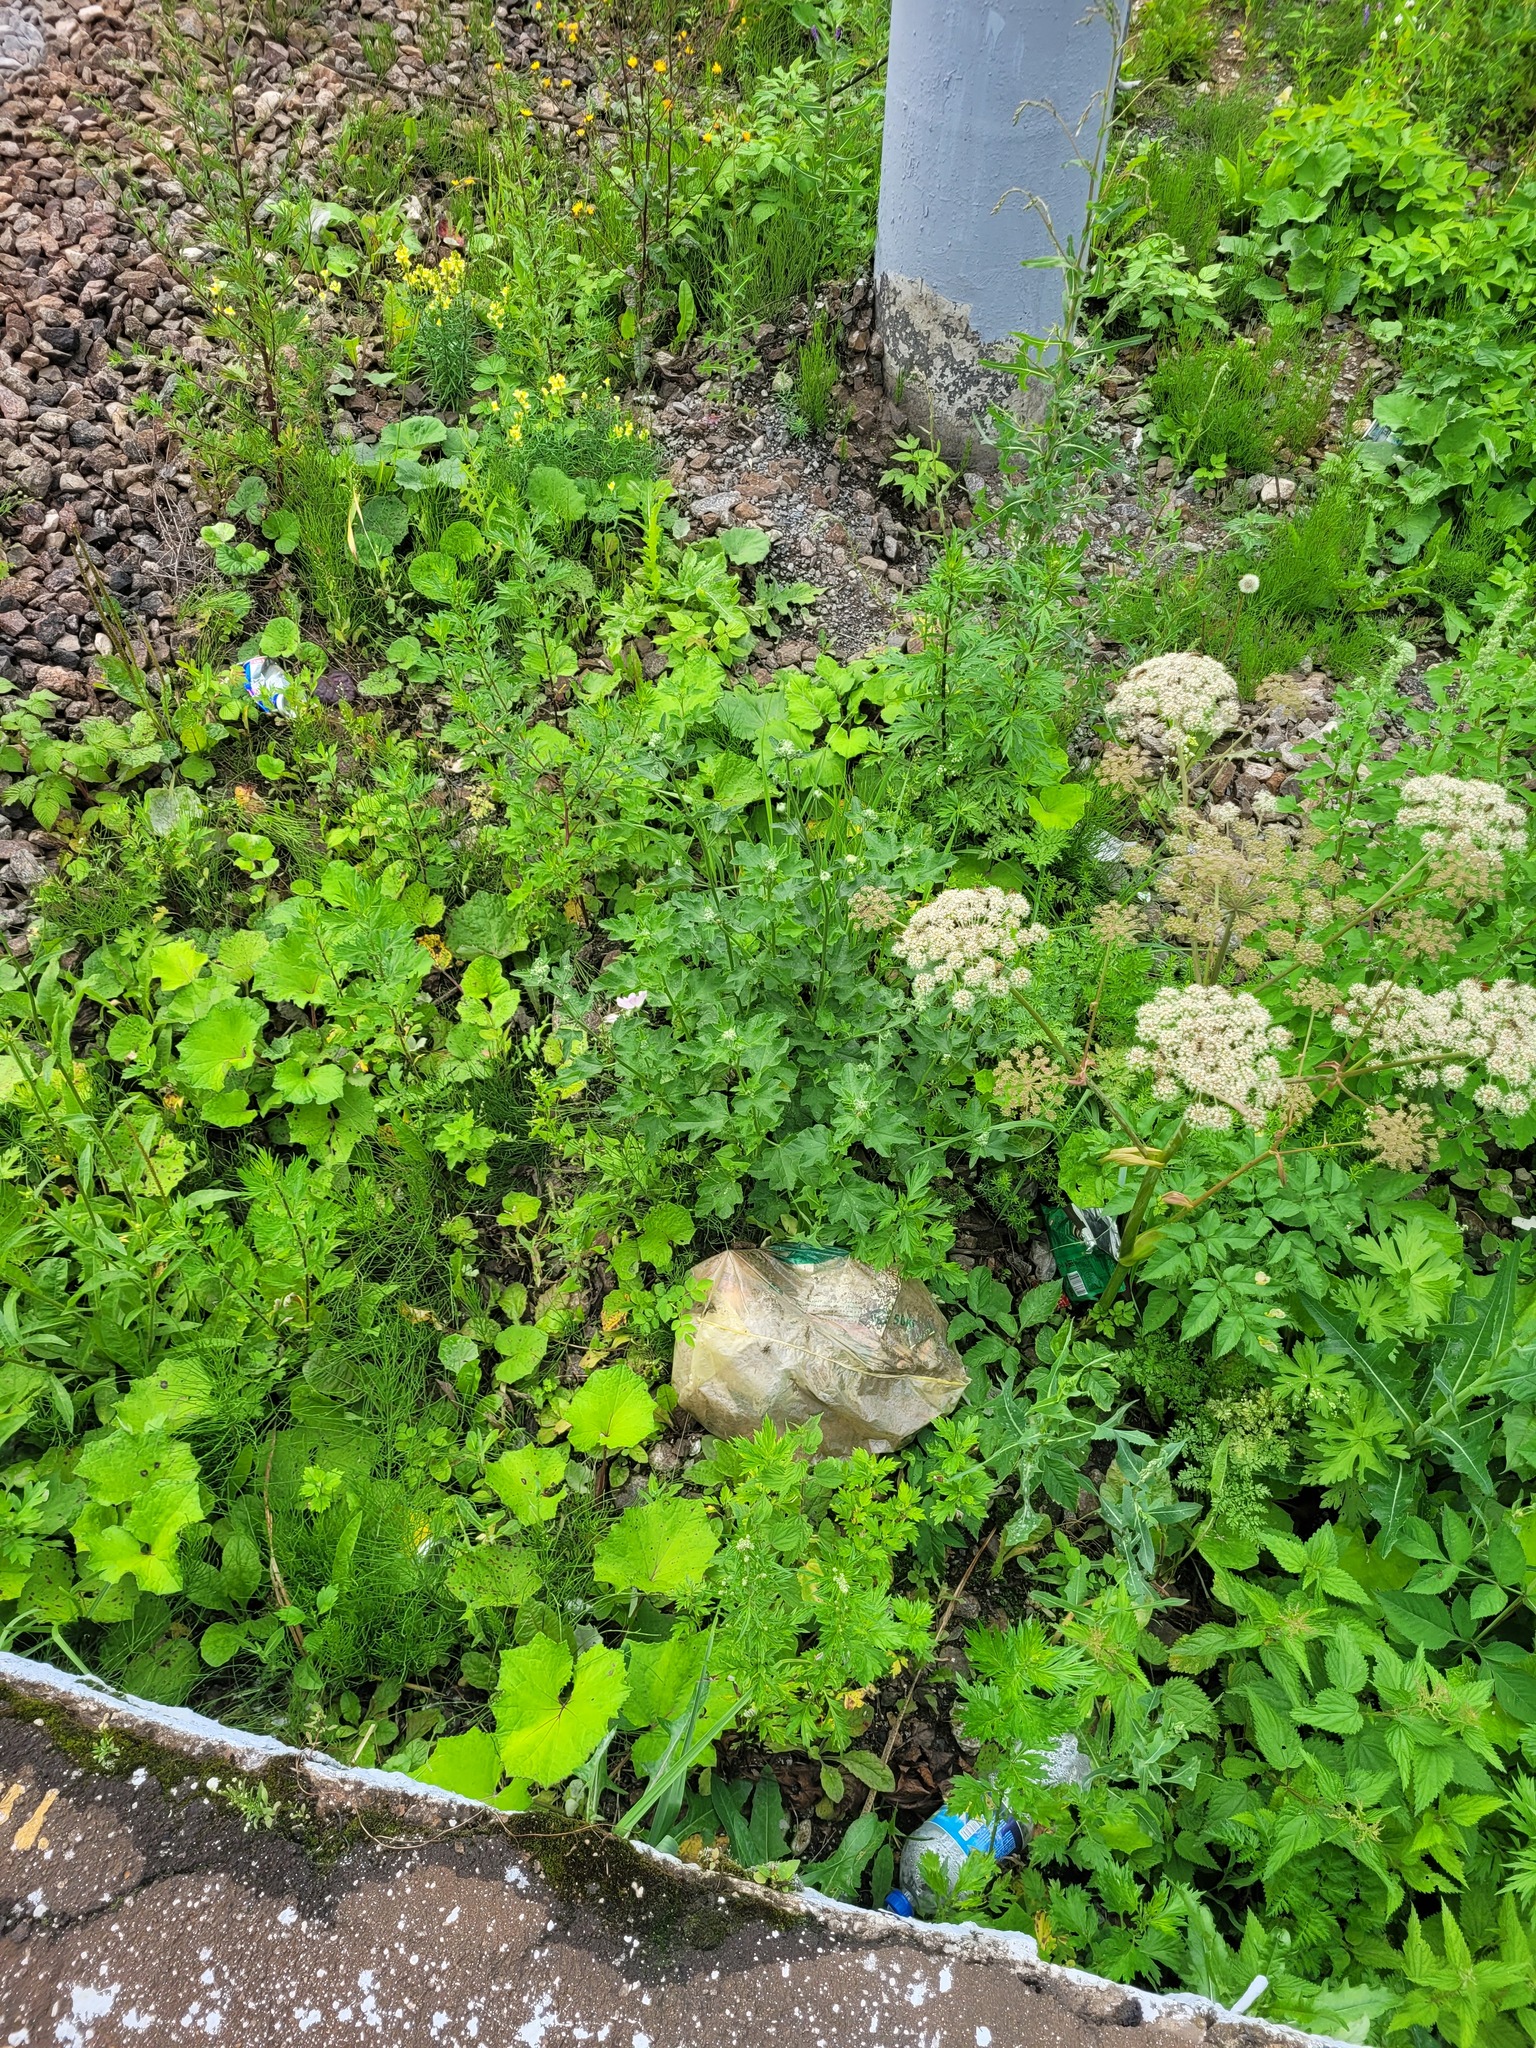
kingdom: Plantae
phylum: Tracheophyta
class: Magnoliopsida
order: Malvales
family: Malvaceae
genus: Malva
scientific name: Malva thuringiaca
